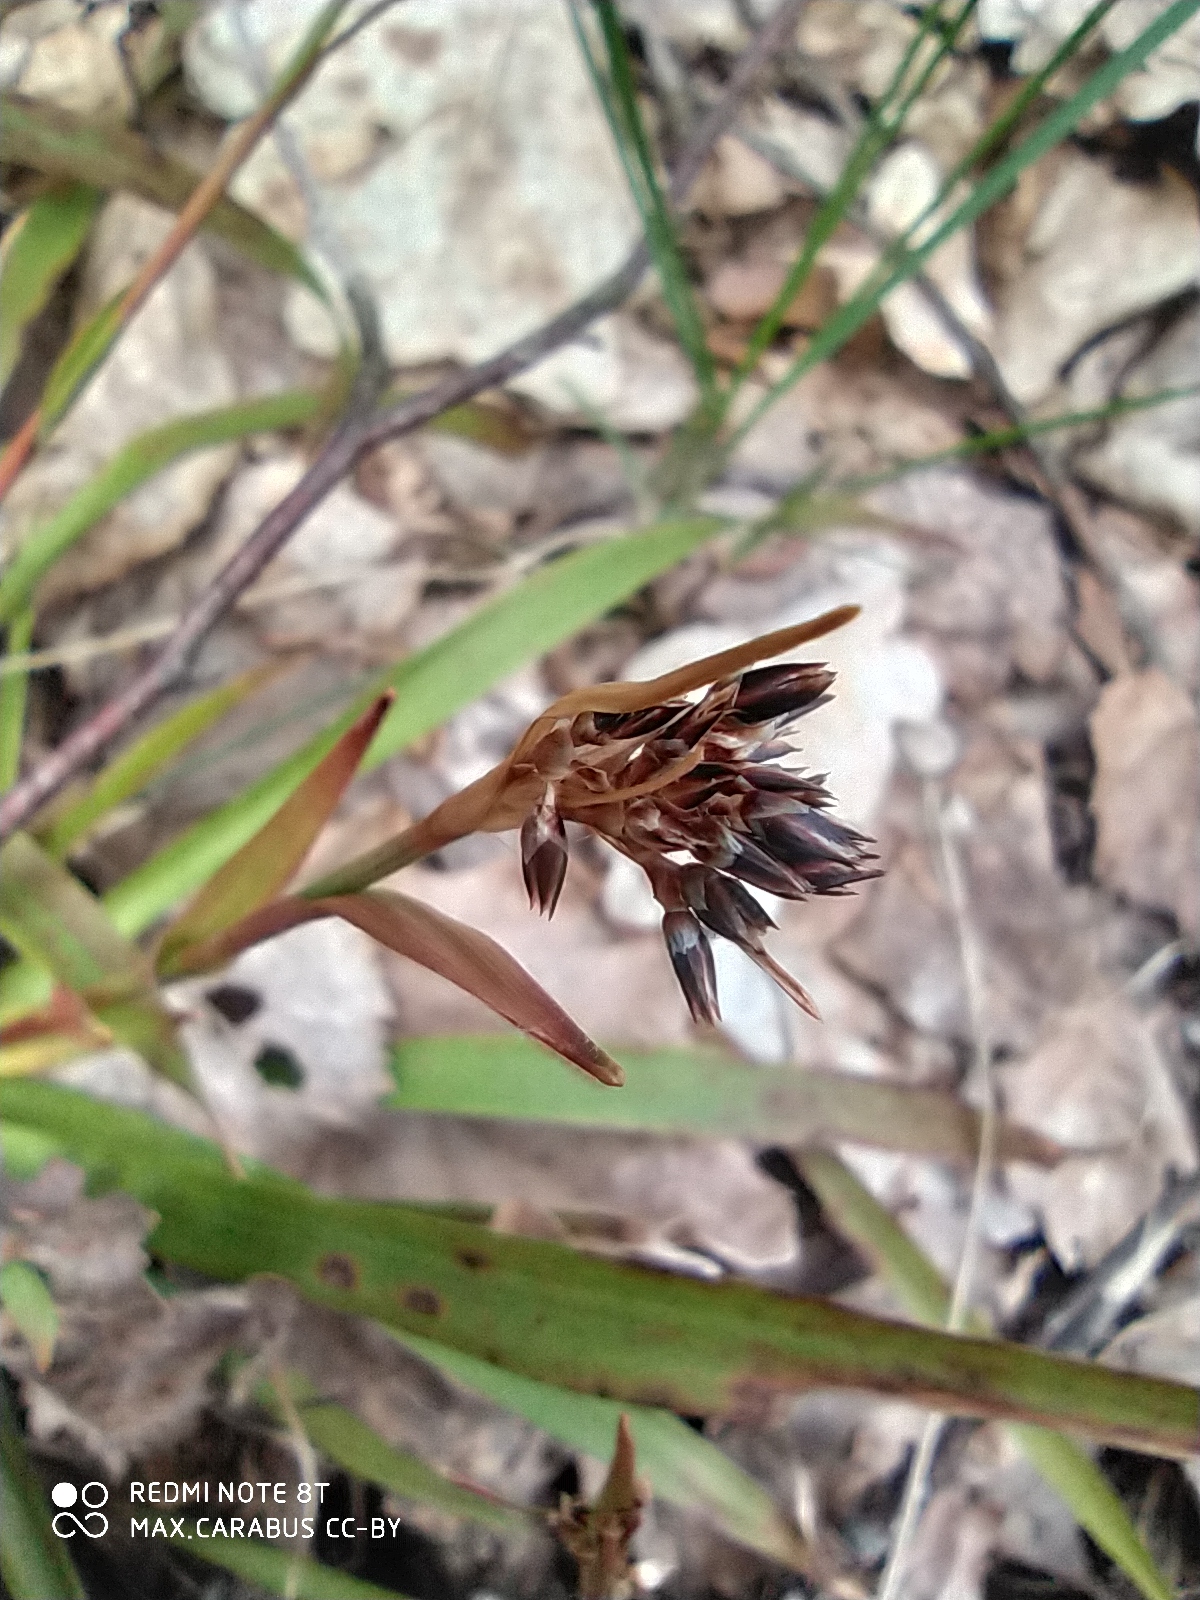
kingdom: Plantae
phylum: Tracheophyta
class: Liliopsida
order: Poales
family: Juncaceae
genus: Luzula
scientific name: Luzula pilosa
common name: Hairy wood-rush
